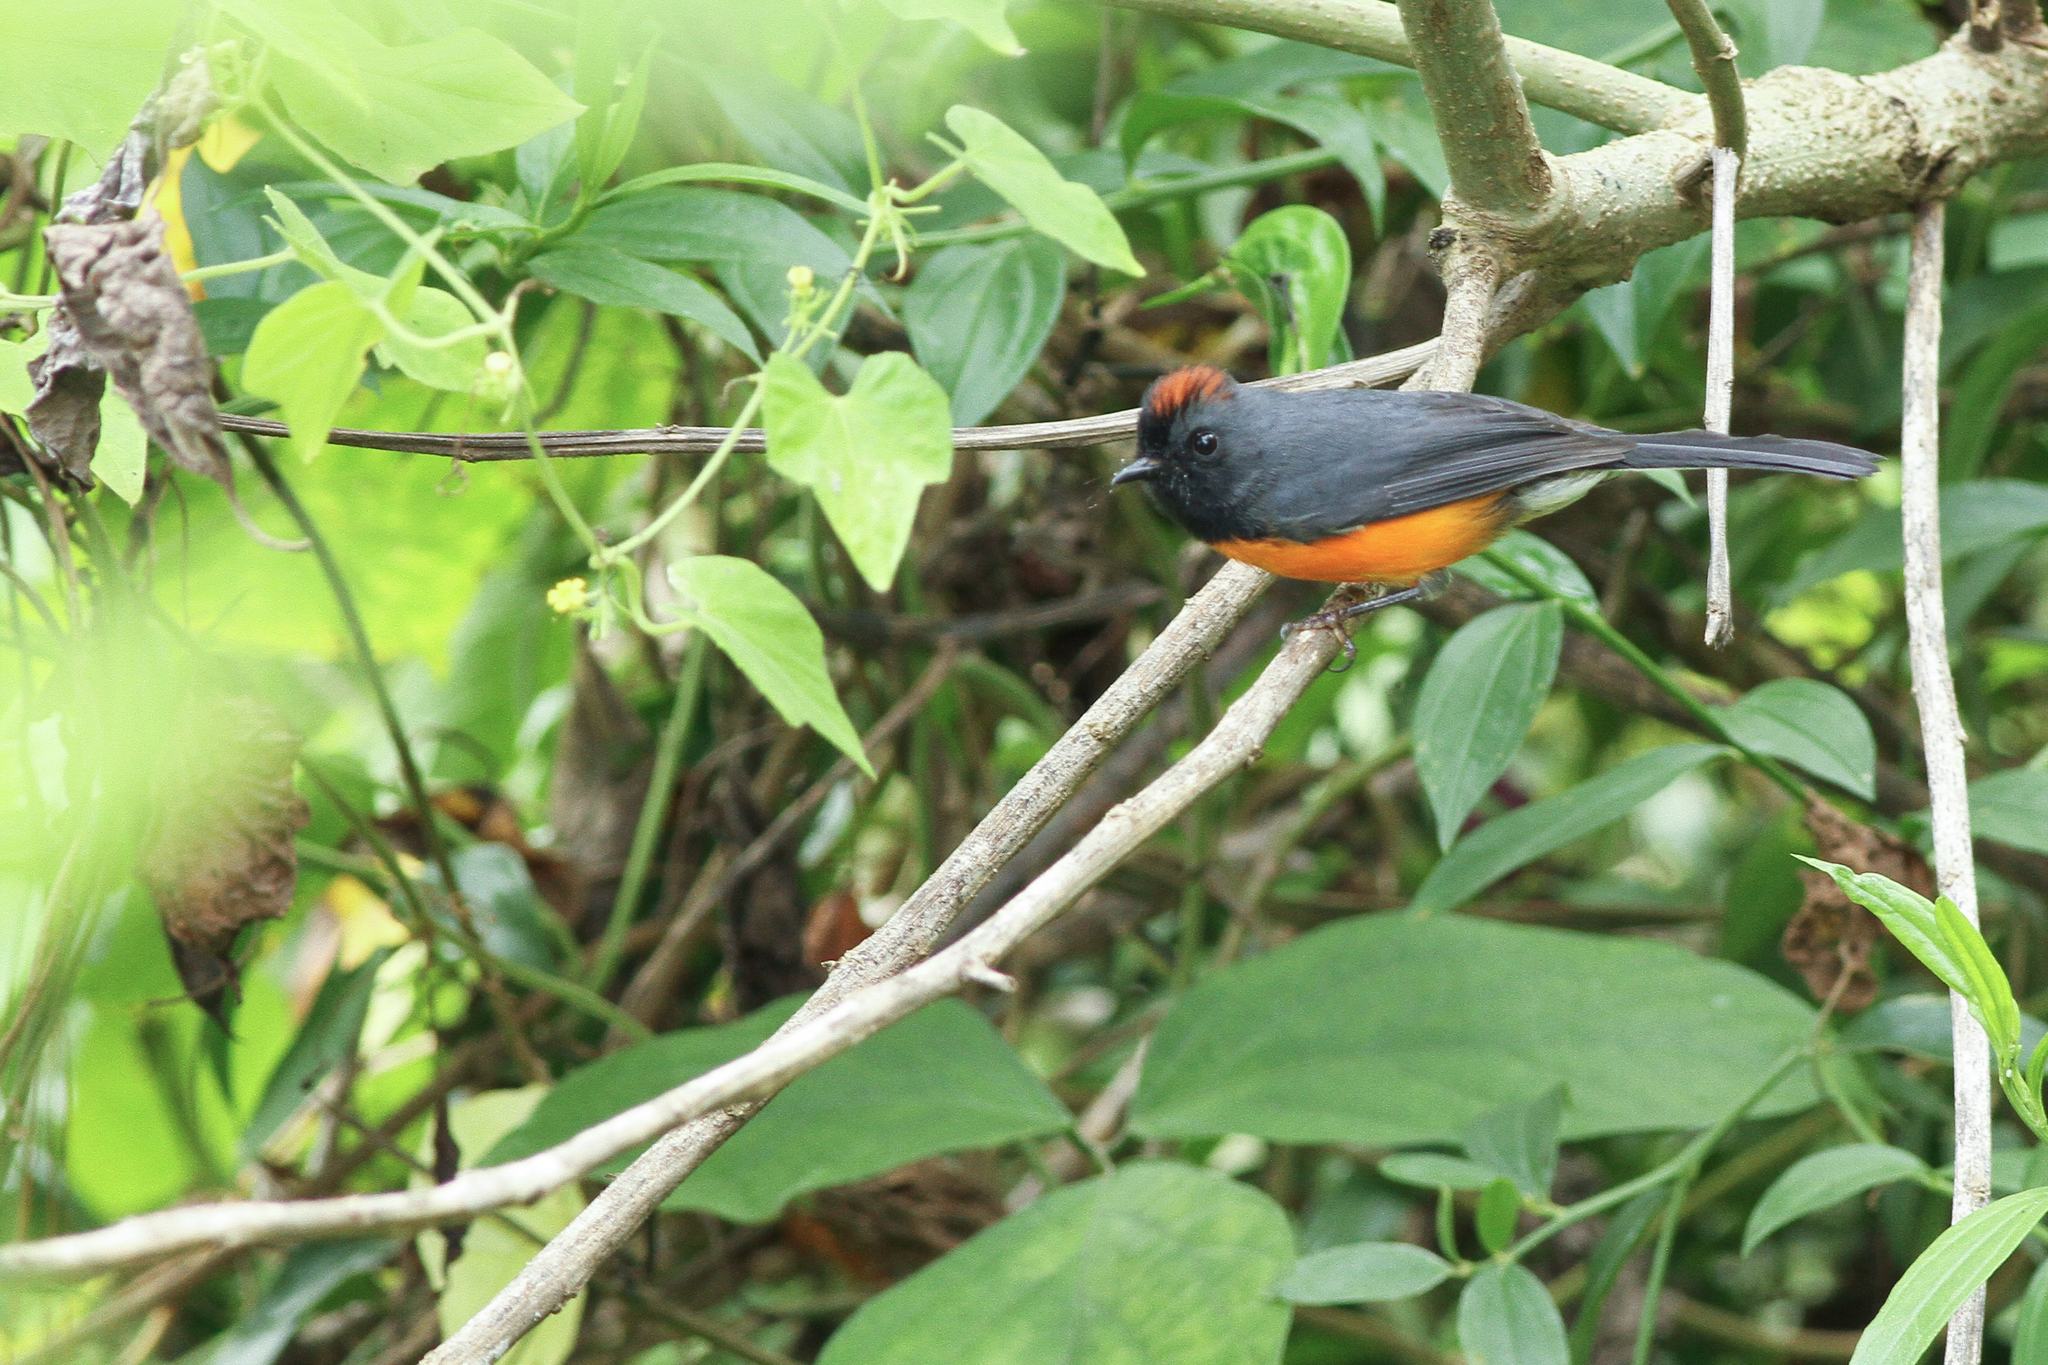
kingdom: Animalia
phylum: Chordata
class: Aves
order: Passeriformes
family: Parulidae
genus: Myioborus
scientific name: Myioborus miniatus
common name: Slate-throated redstart
